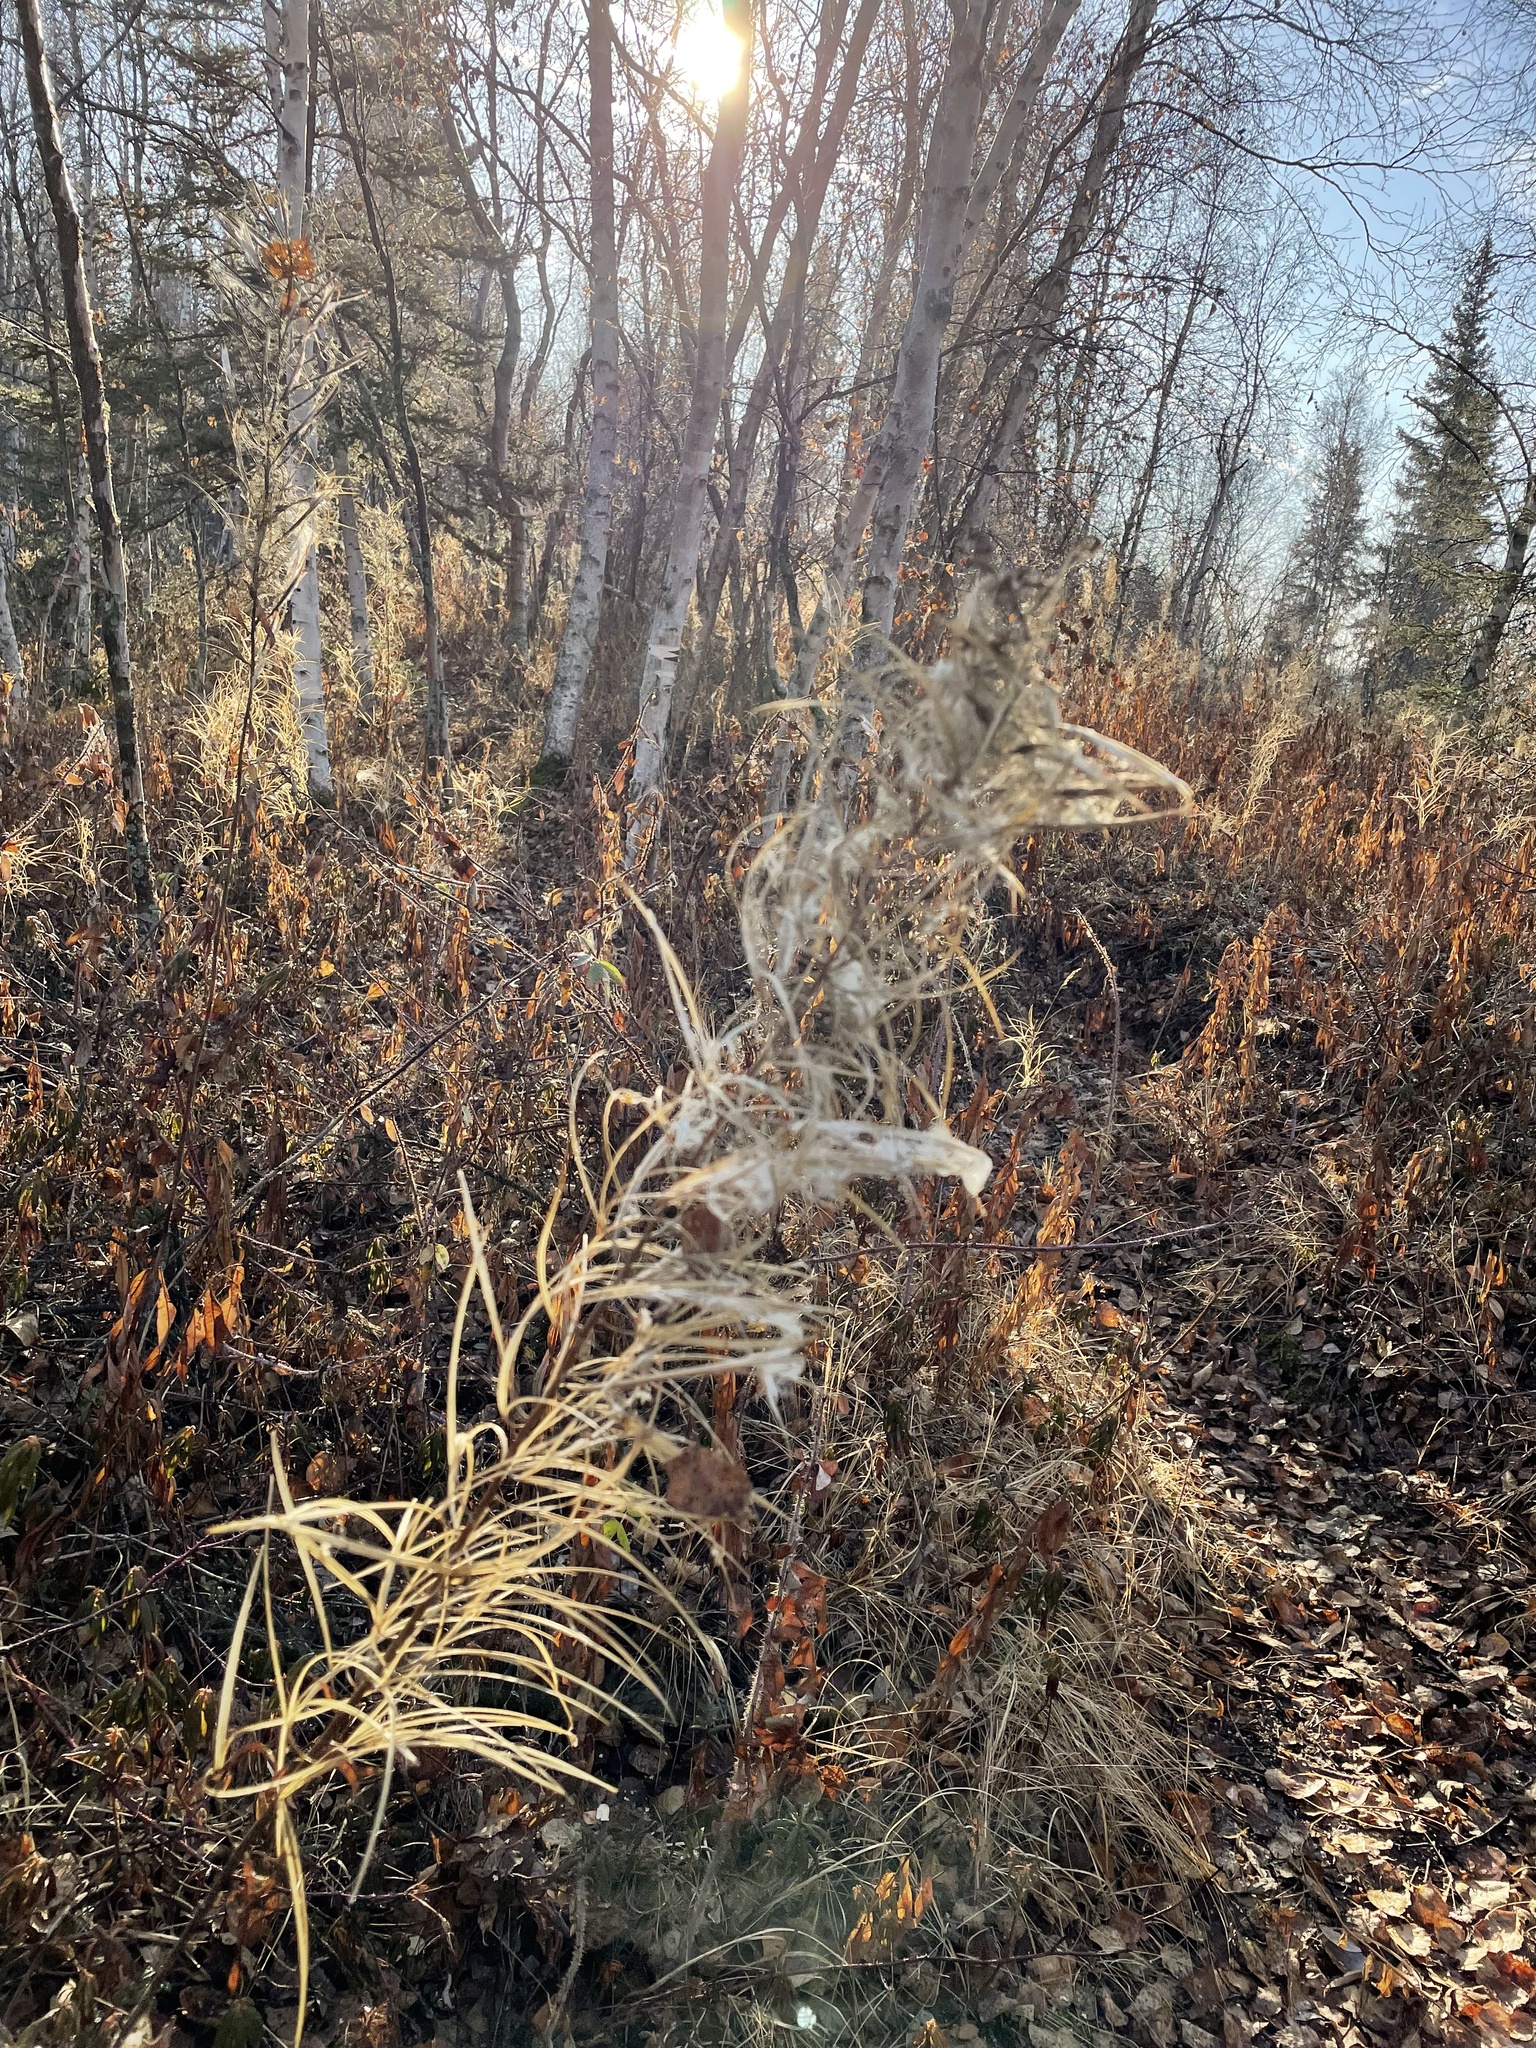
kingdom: Plantae
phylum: Tracheophyta
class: Magnoliopsida
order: Myrtales
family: Onagraceae
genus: Chamaenerion
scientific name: Chamaenerion angustifolium
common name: Fireweed
